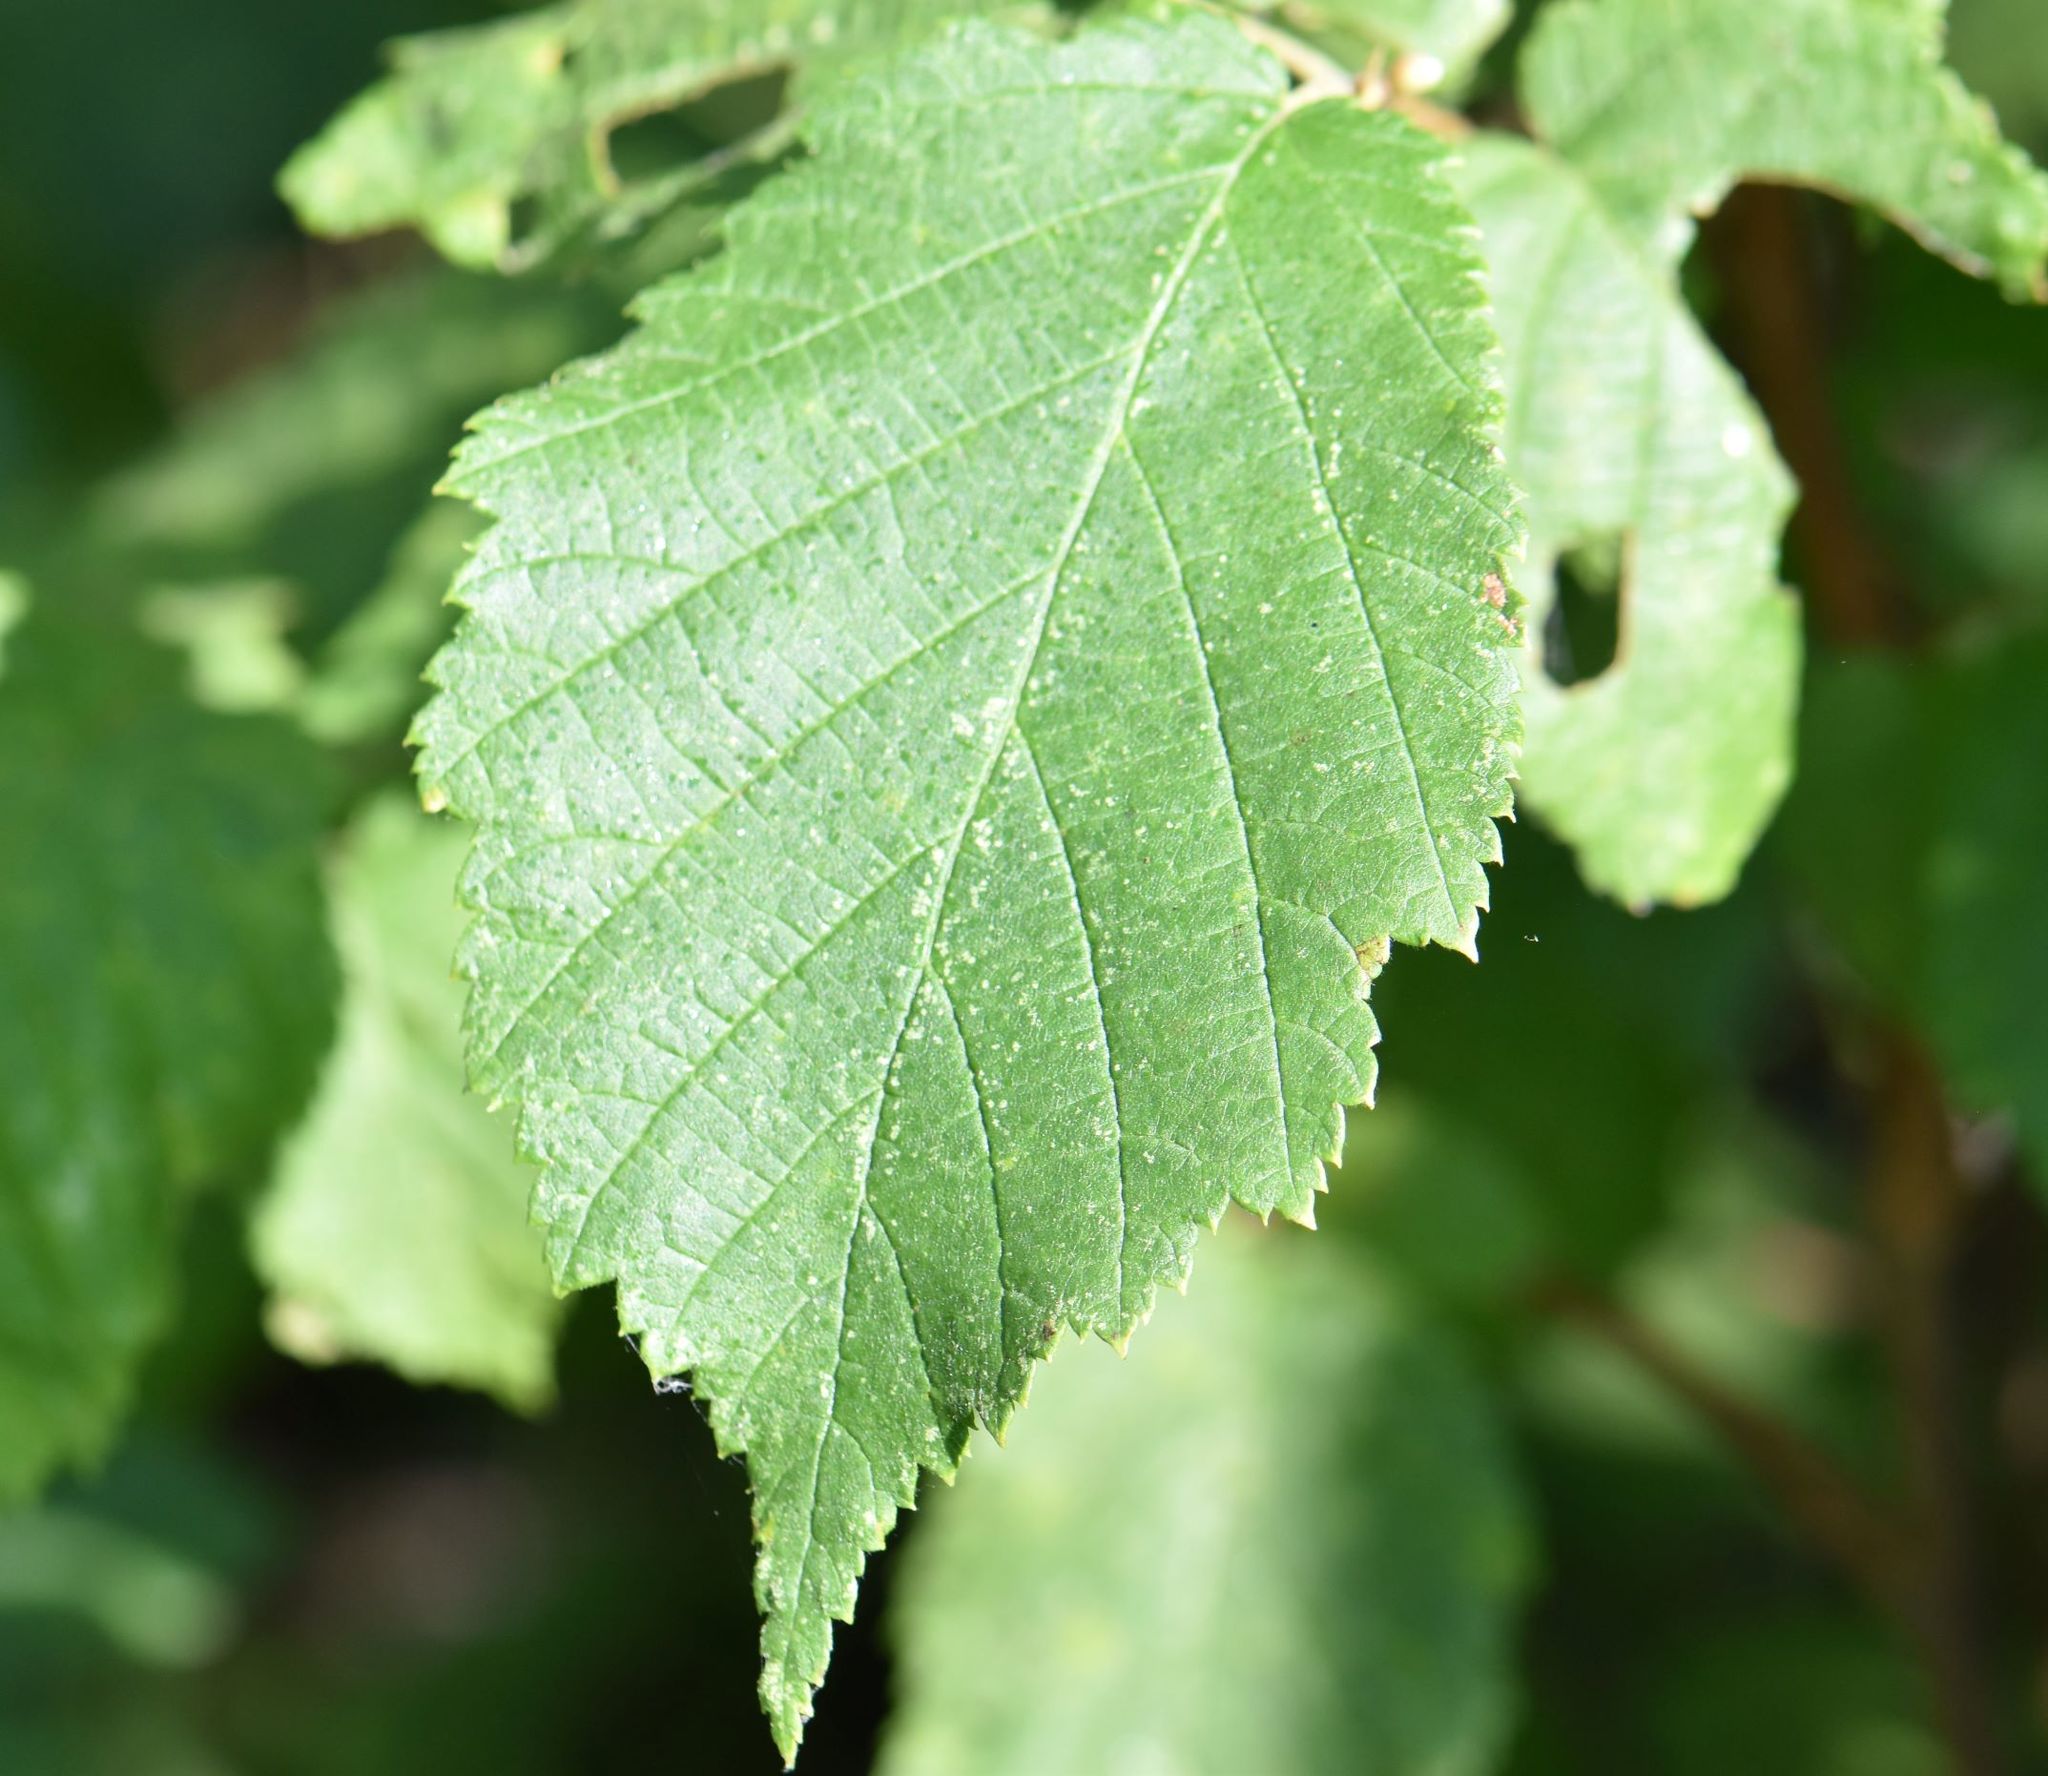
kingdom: Plantae
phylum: Tracheophyta
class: Magnoliopsida
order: Fagales
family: Betulaceae
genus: Corylus
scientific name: Corylus cornuta
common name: Beaked hazel
